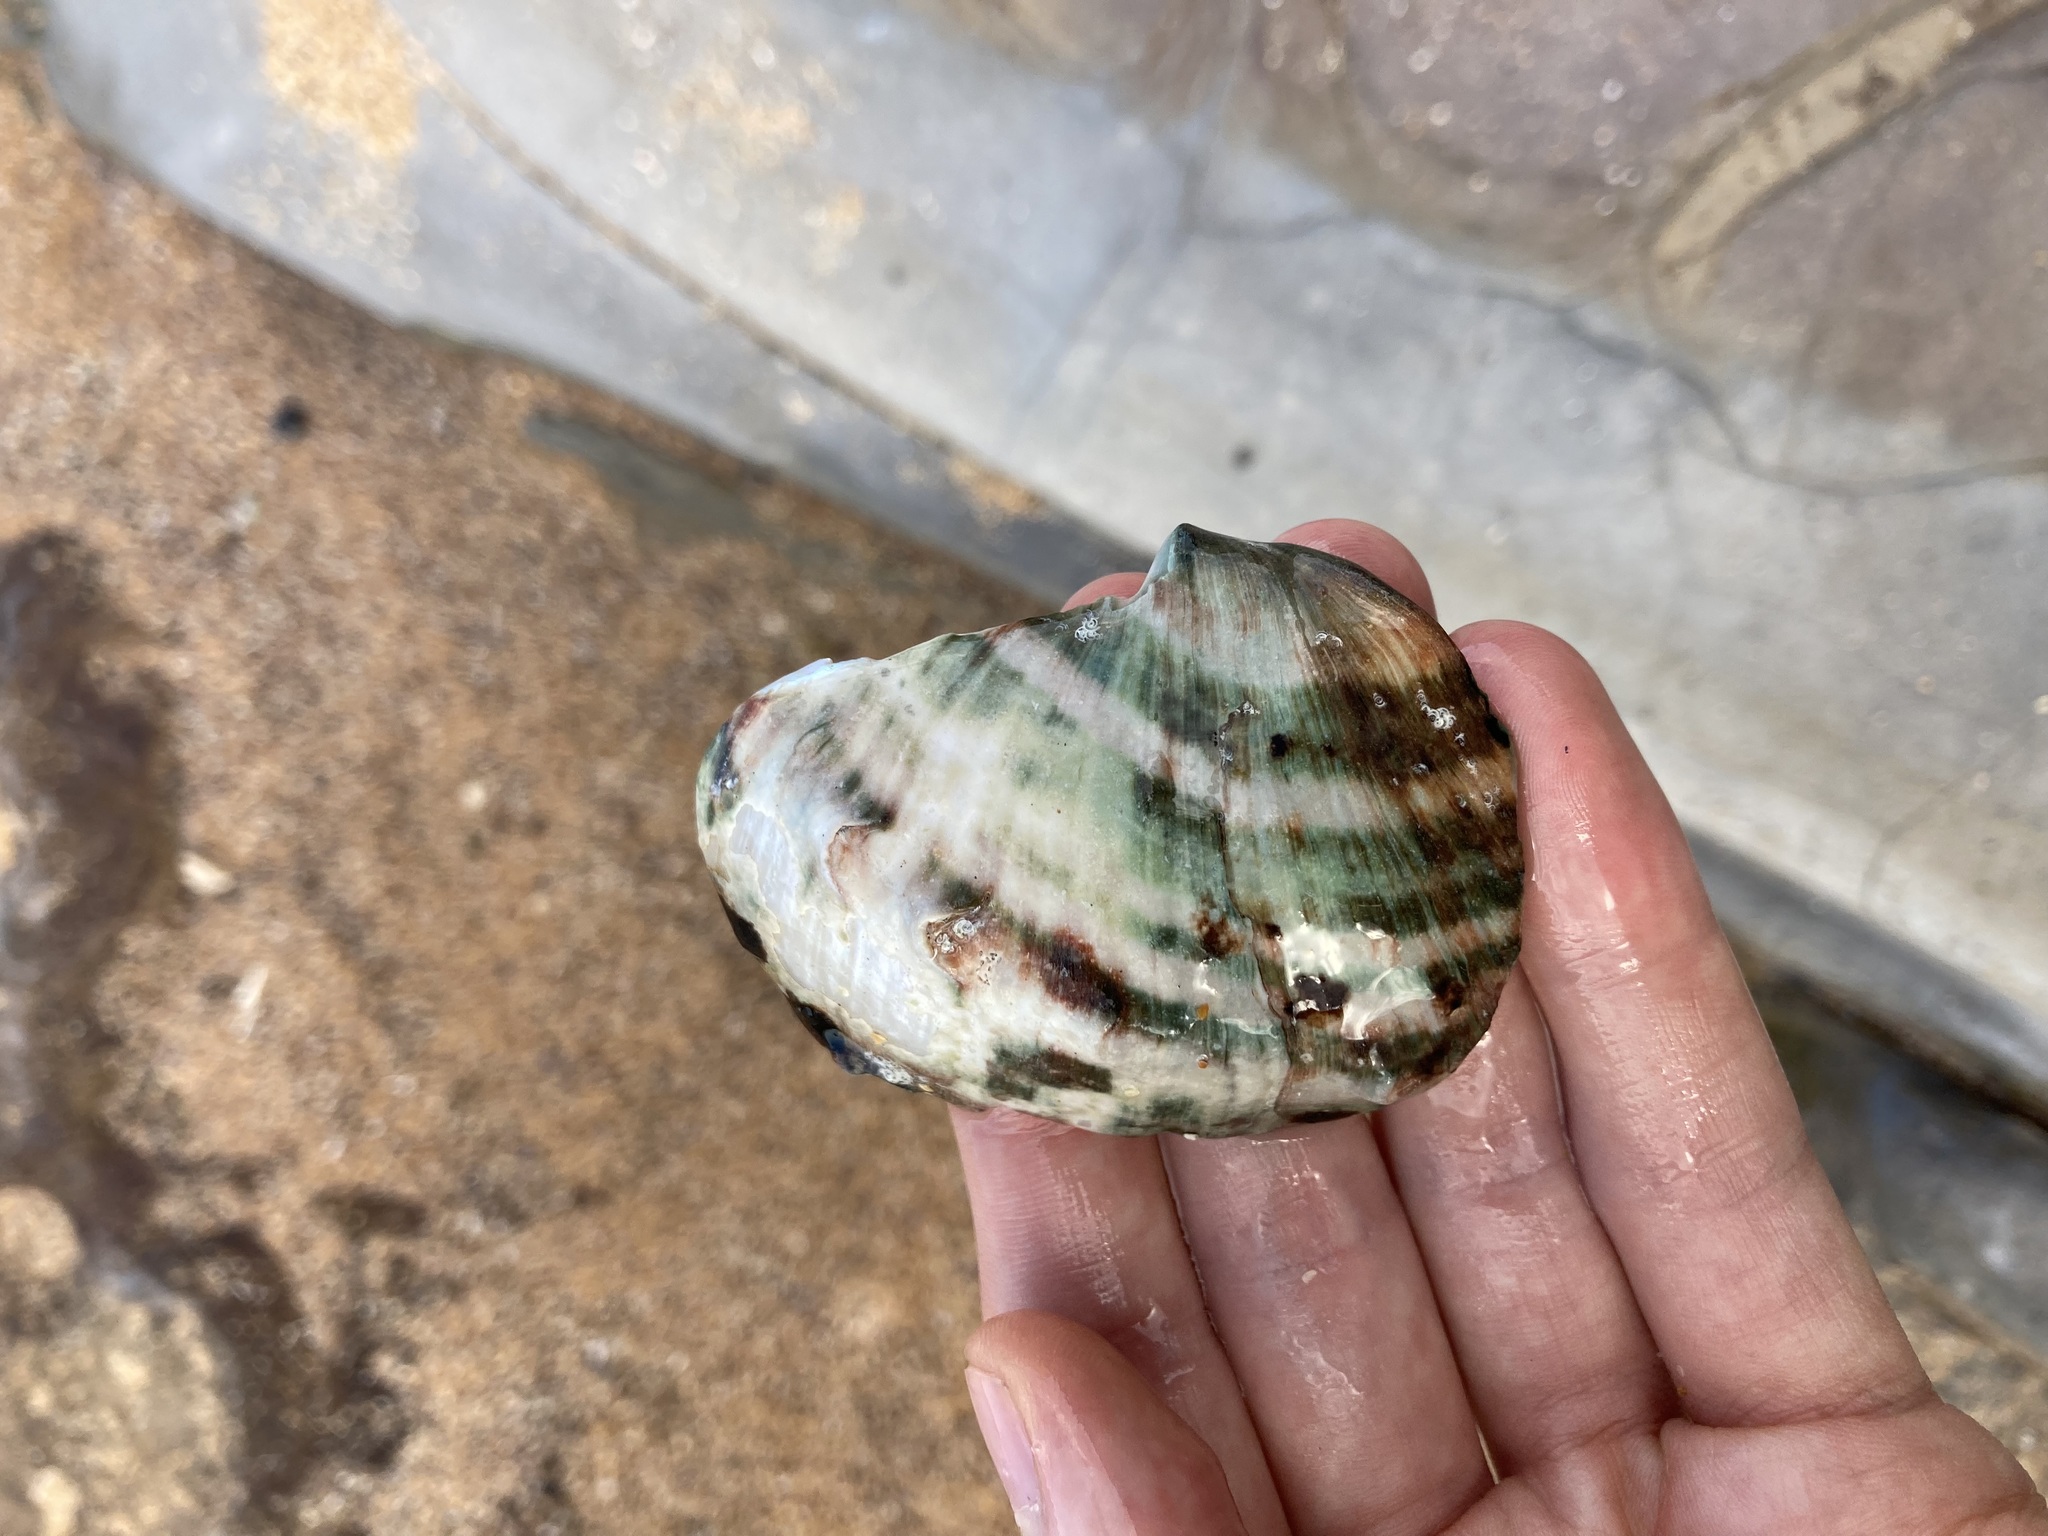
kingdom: Animalia
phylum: Mollusca
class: Gastropoda
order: Trochida
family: Turbinidae
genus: Turbo
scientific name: Turbo militaris
